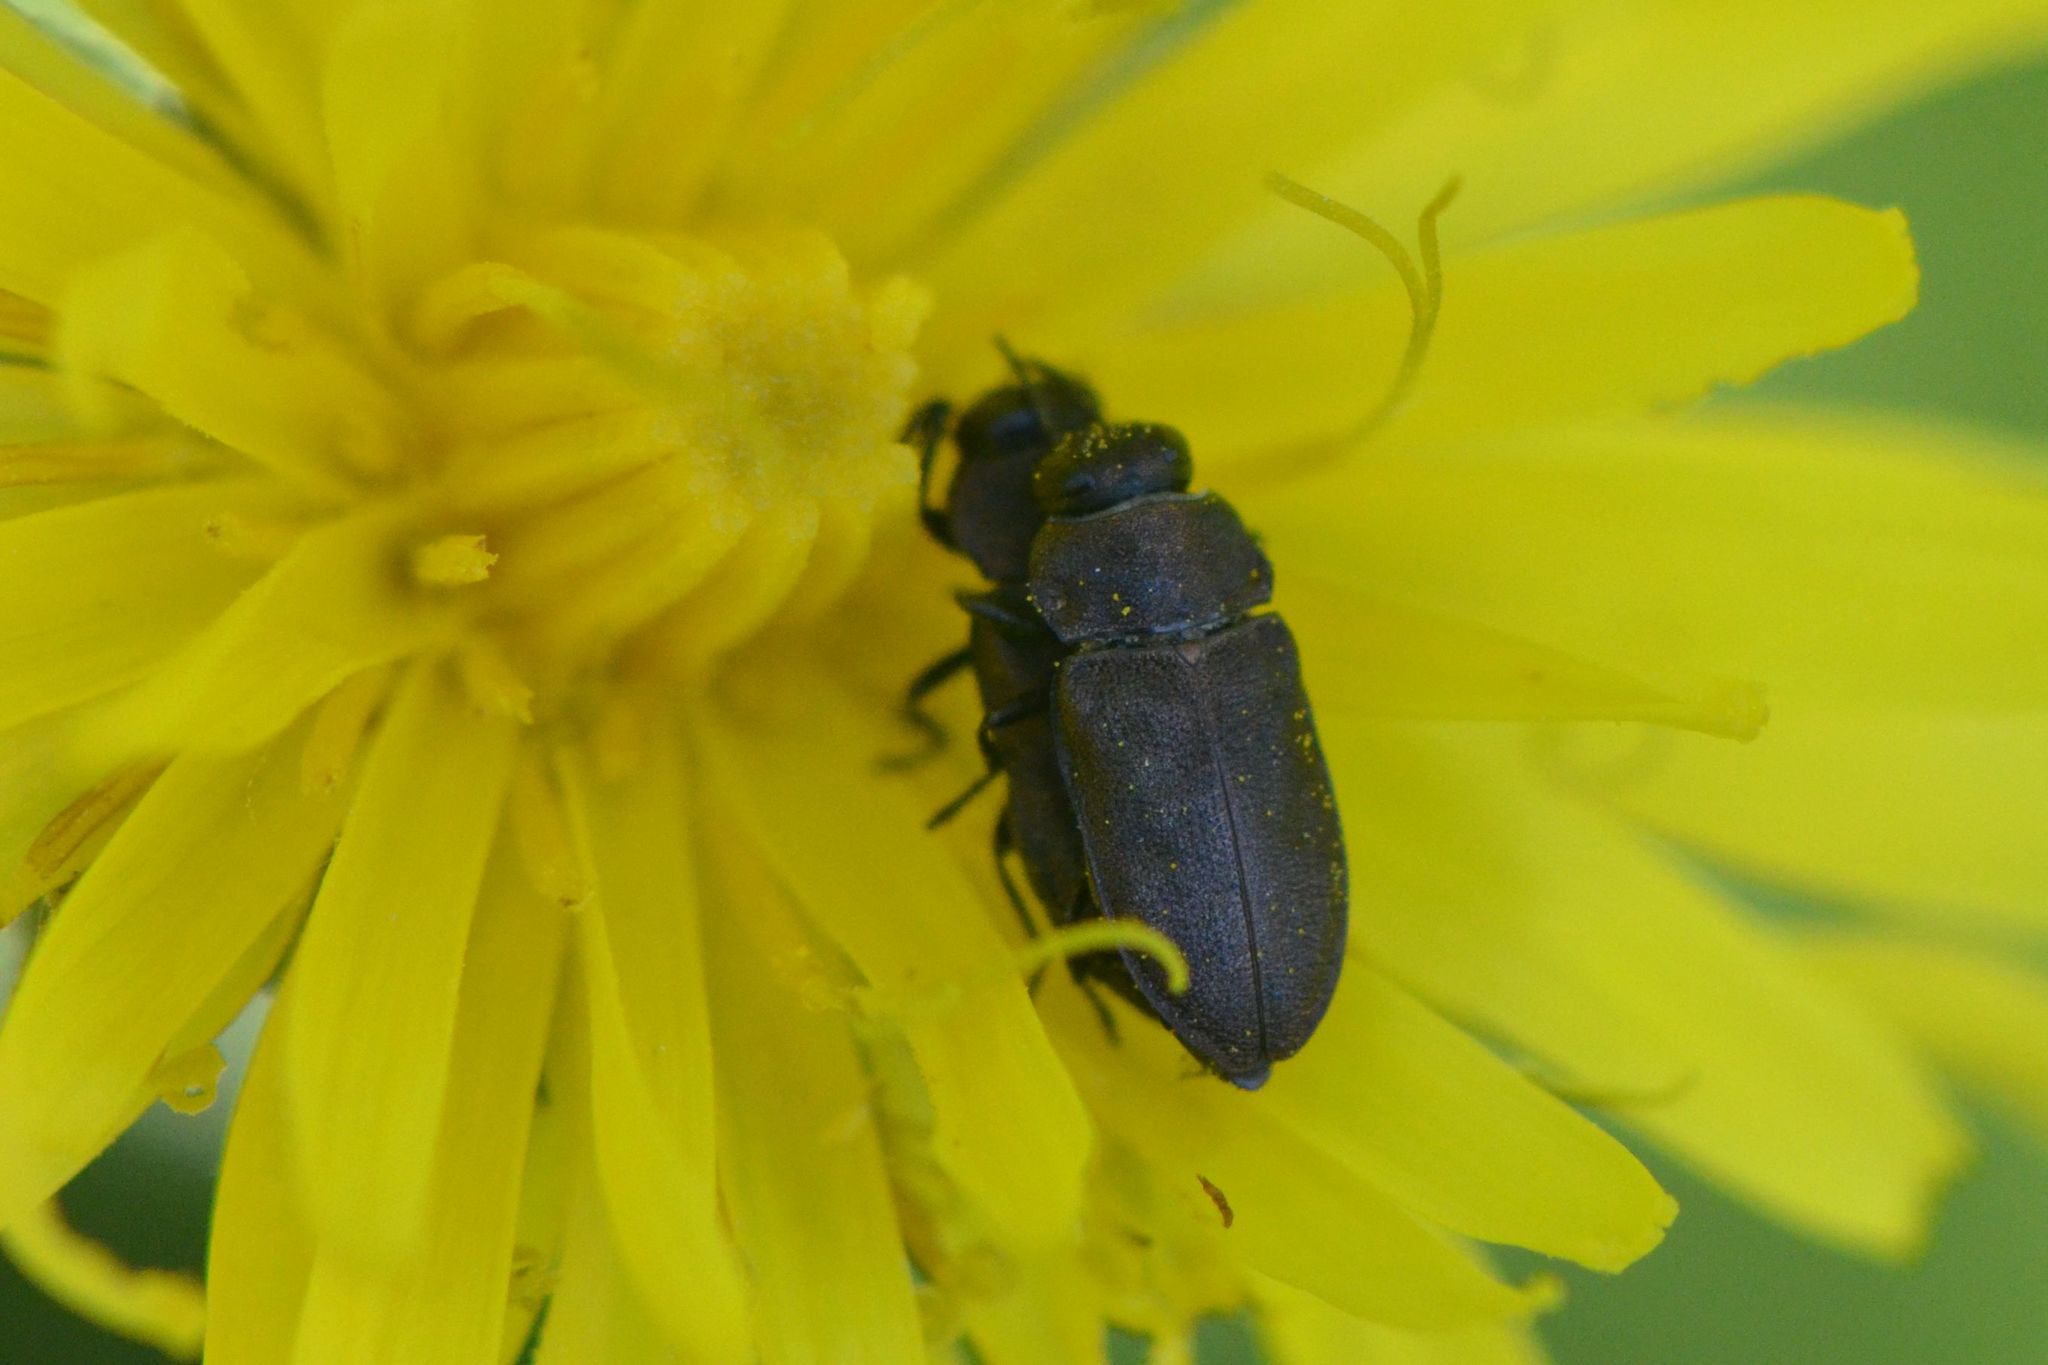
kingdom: Animalia
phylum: Arthropoda
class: Insecta
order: Coleoptera
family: Buprestidae
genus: Anthaxia
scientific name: Anthaxia helvetica
